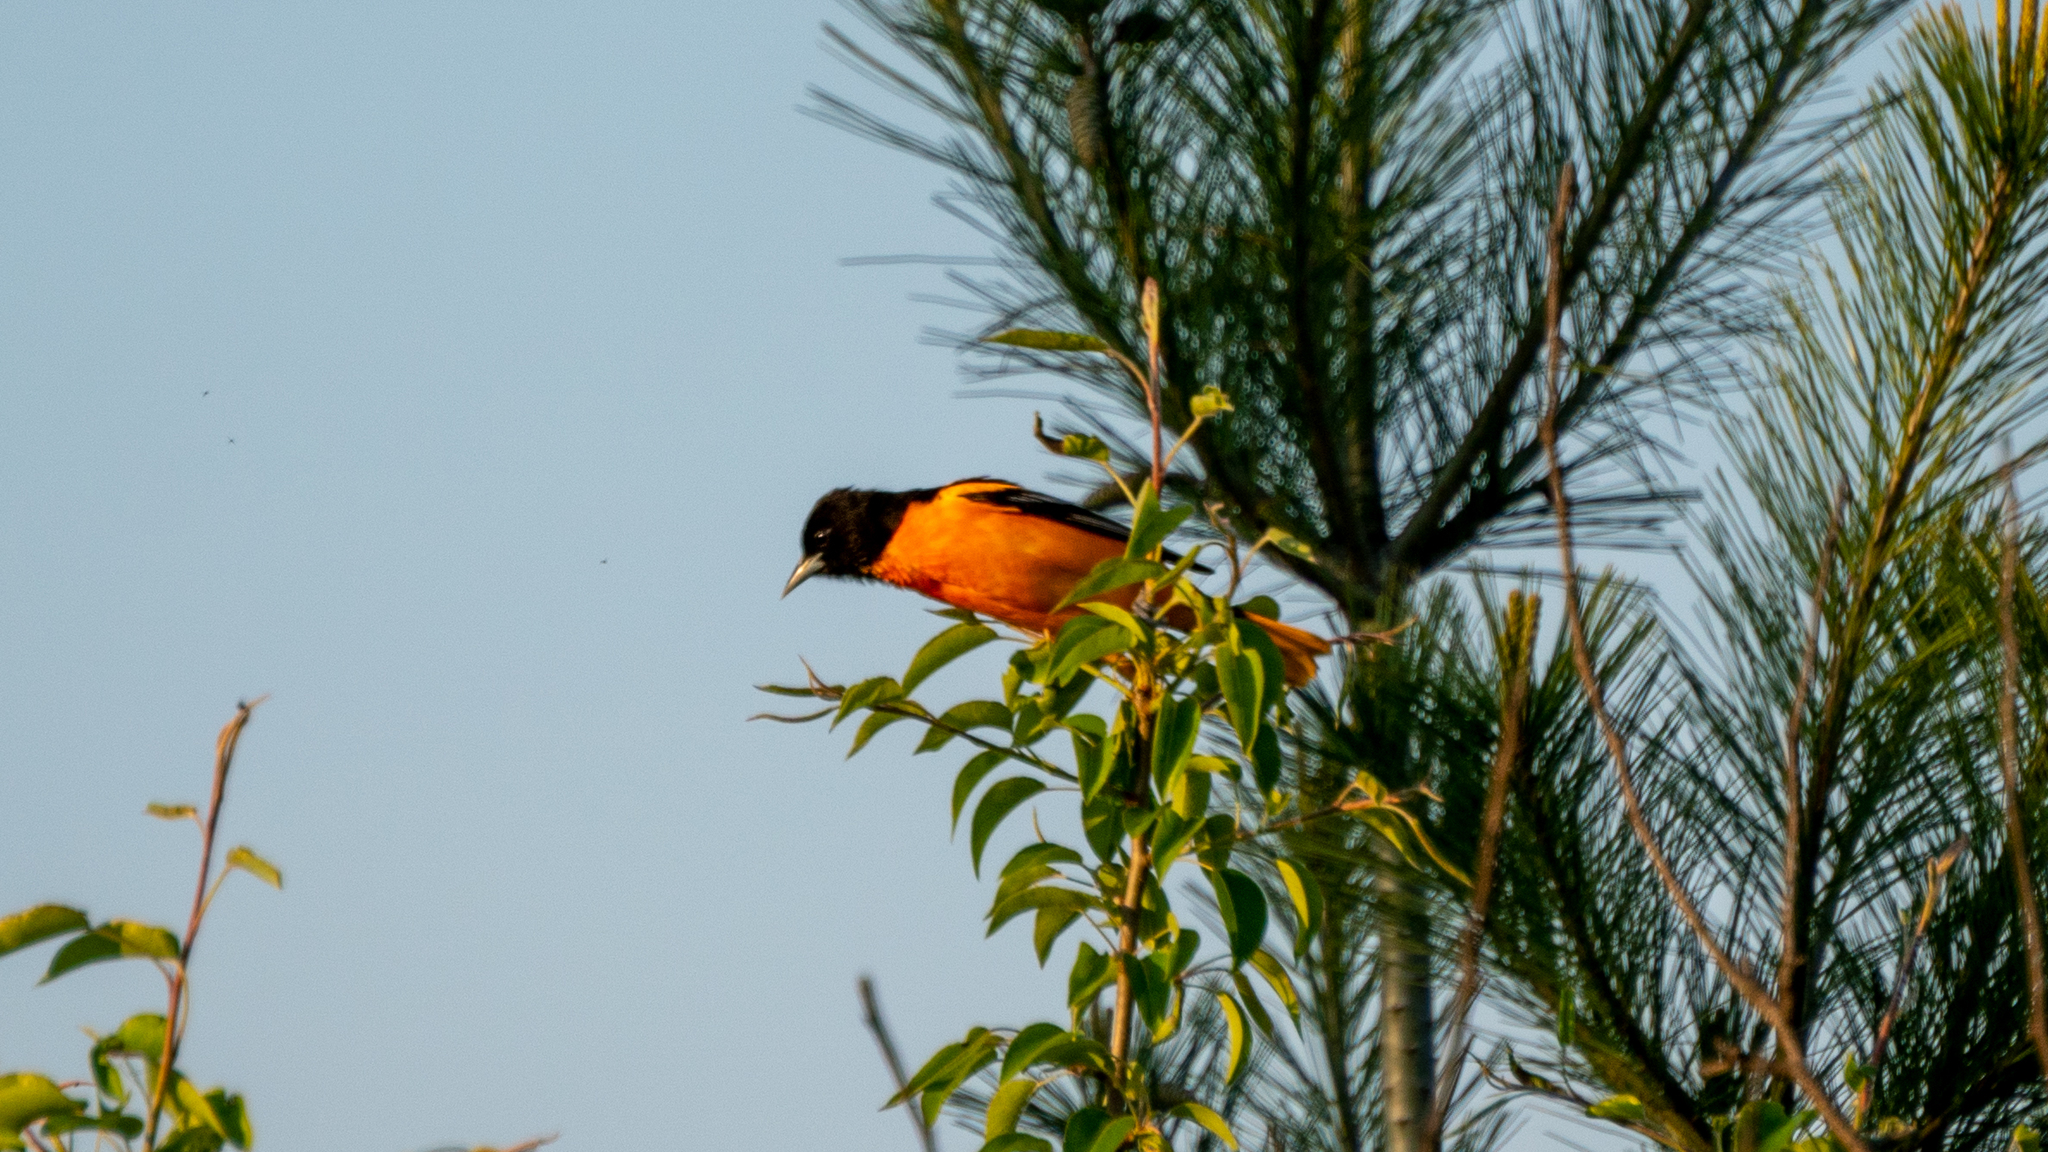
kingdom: Animalia
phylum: Chordata
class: Aves
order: Passeriformes
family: Icteridae
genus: Icterus
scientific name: Icterus galbula
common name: Baltimore oriole
